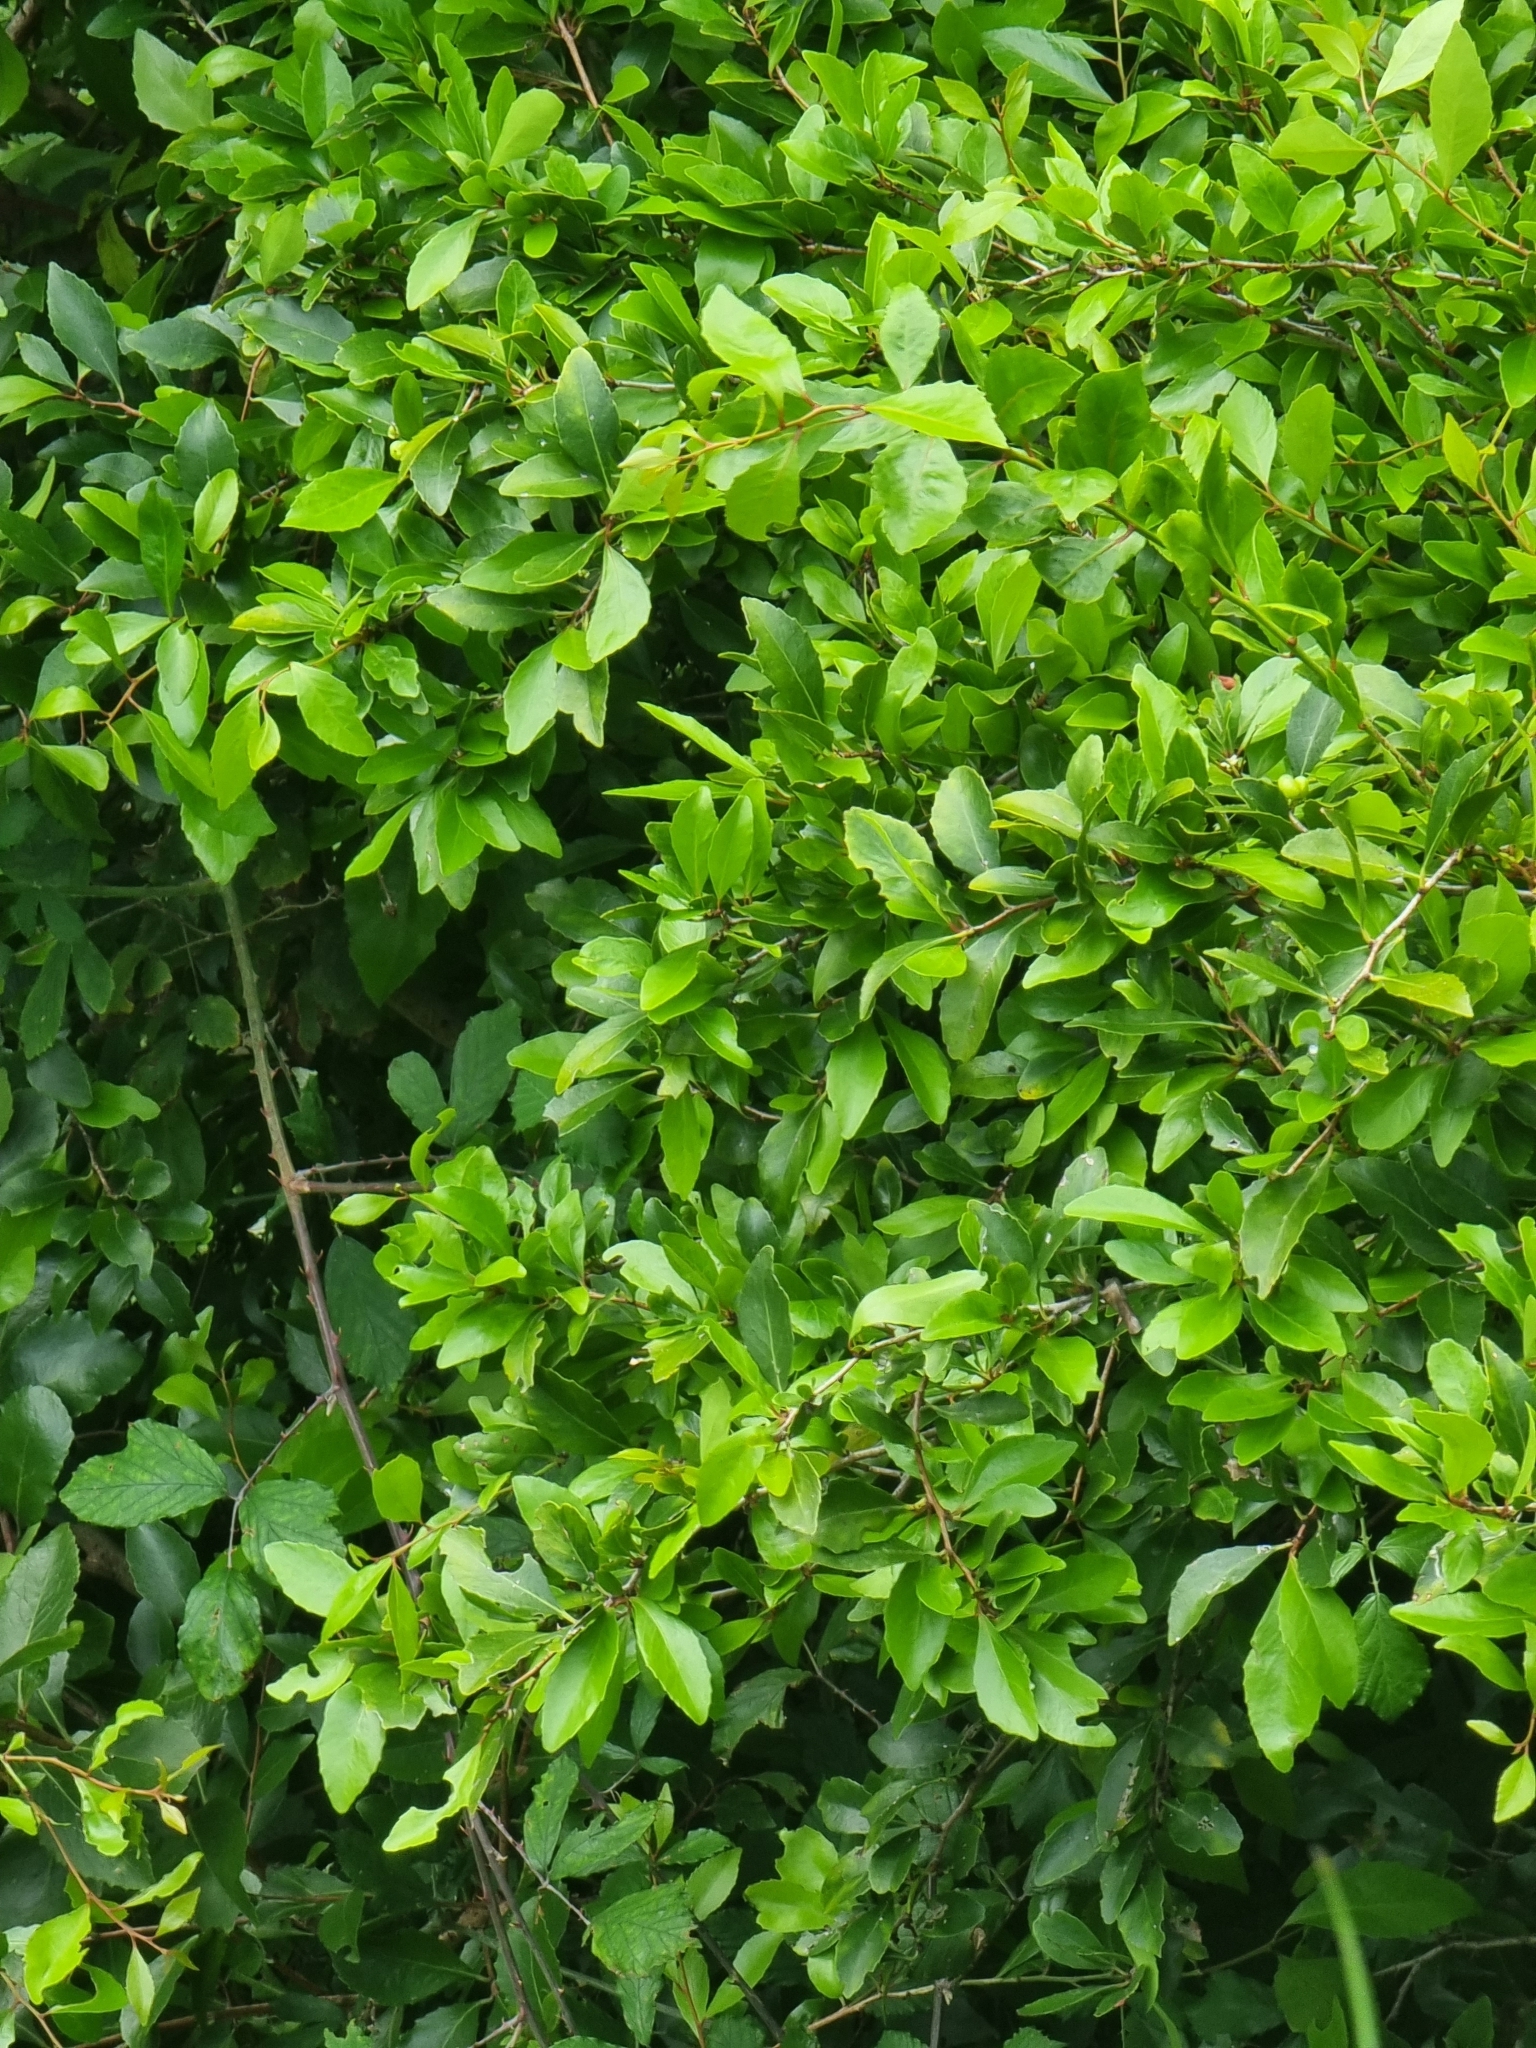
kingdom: Plantae
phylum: Tracheophyta
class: Magnoliopsida
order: Celastrales
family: Celastraceae
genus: Gymnosporia
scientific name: Gymnosporia dryandri
